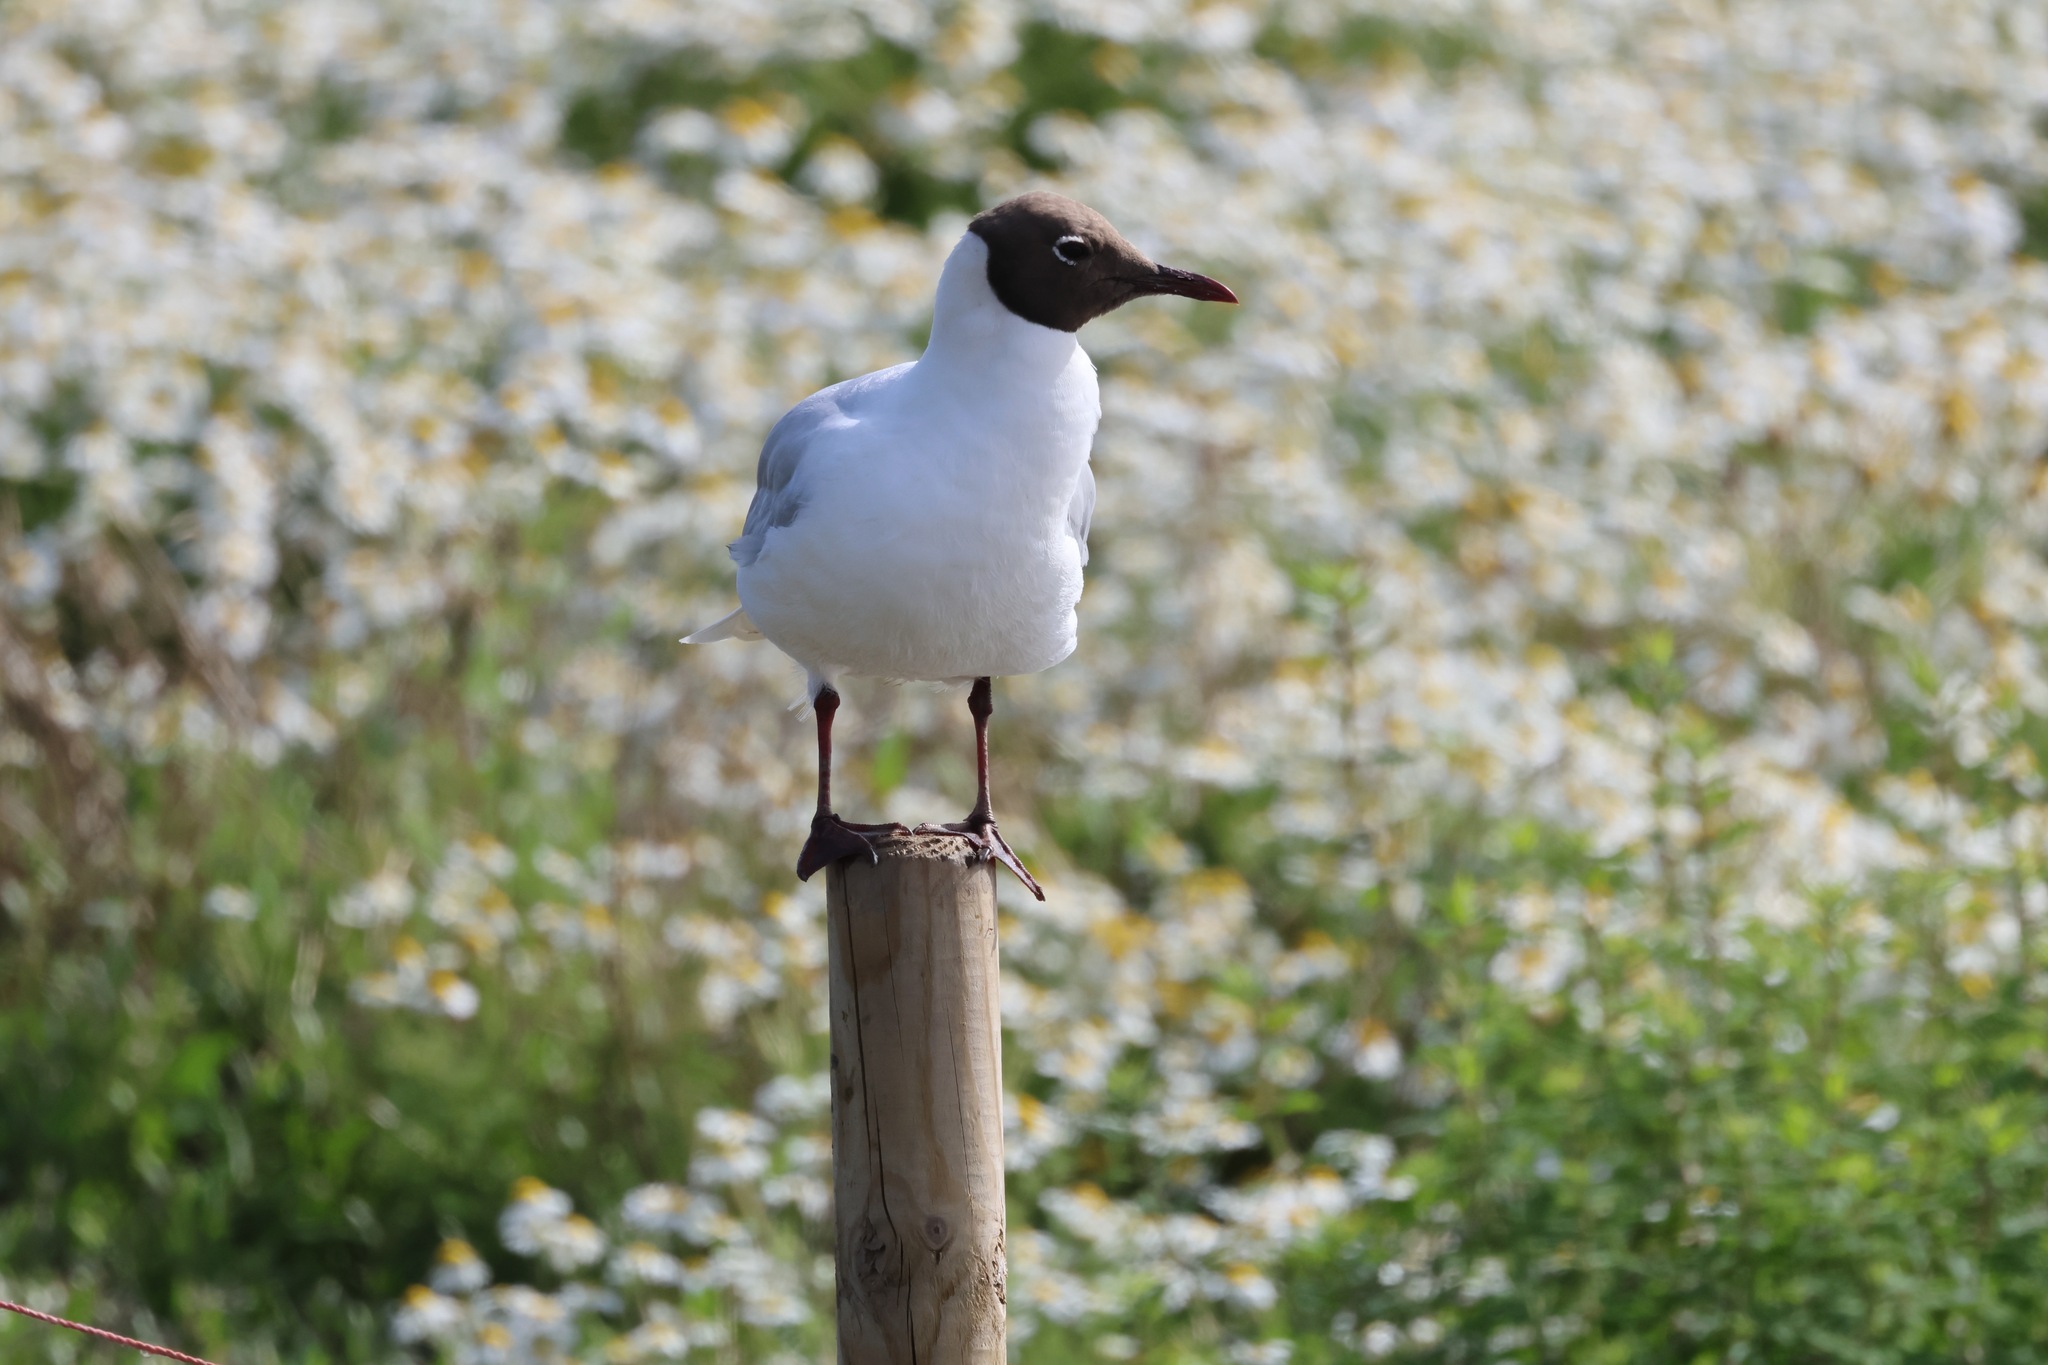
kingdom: Animalia
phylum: Chordata
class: Aves
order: Charadriiformes
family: Laridae
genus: Chroicocephalus
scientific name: Chroicocephalus ridibundus
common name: Black-headed gull
